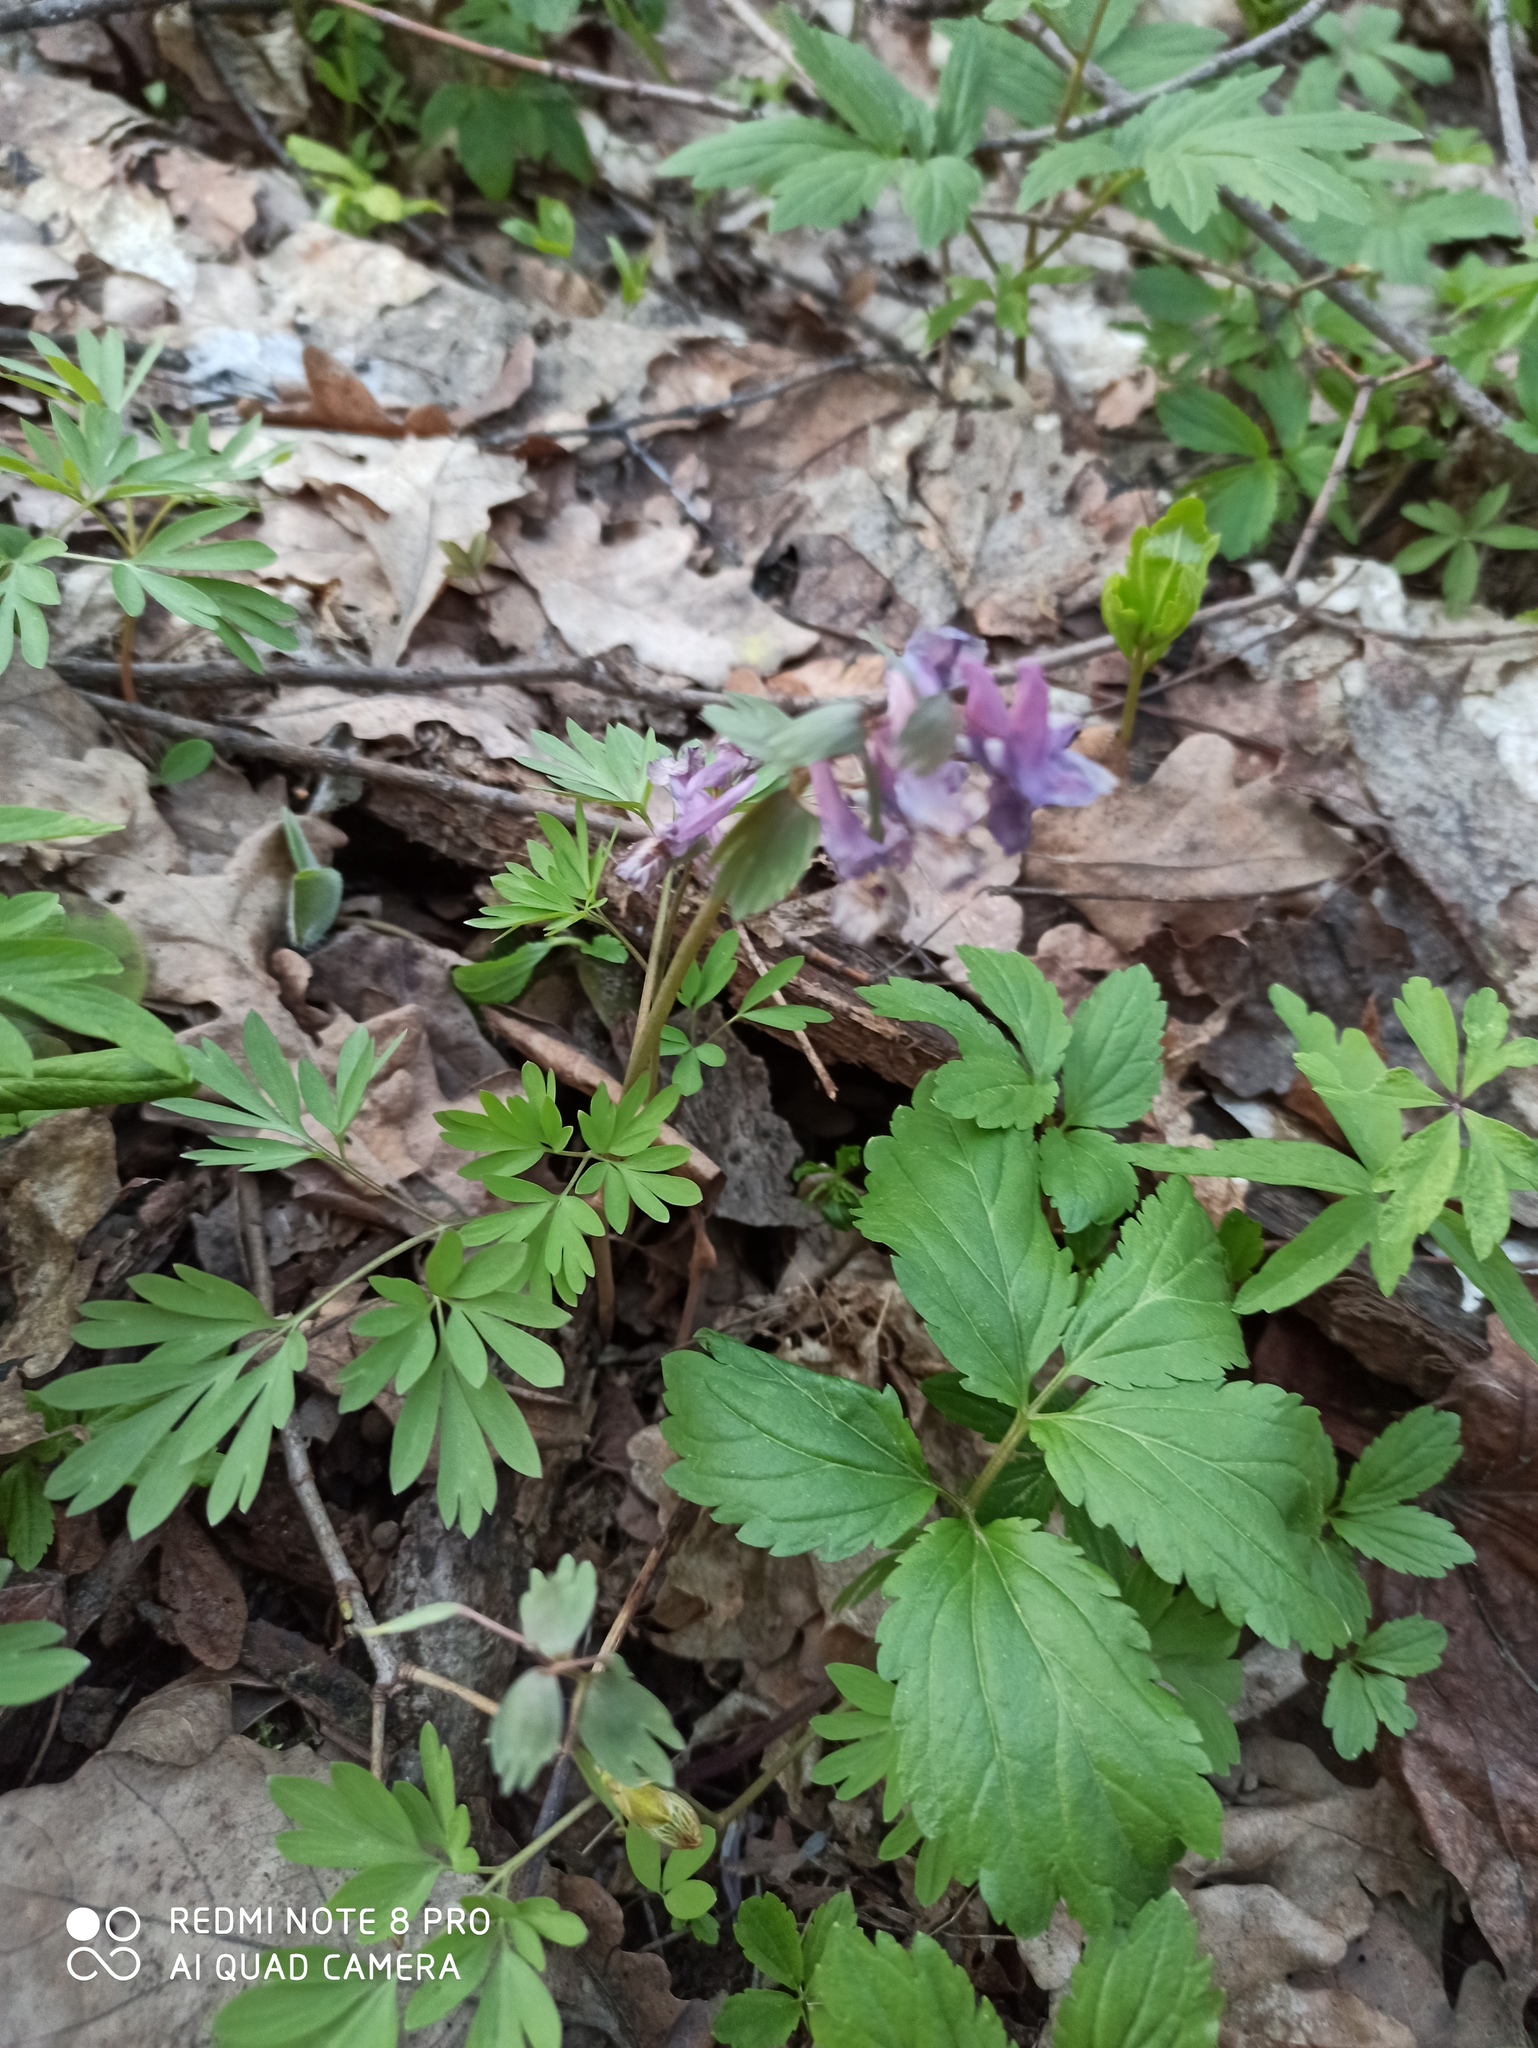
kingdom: Plantae
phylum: Tracheophyta
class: Magnoliopsida
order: Ranunculales
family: Papaveraceae
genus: Corydalis
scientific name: Corydalis solida
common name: Bird-in-a-bush
